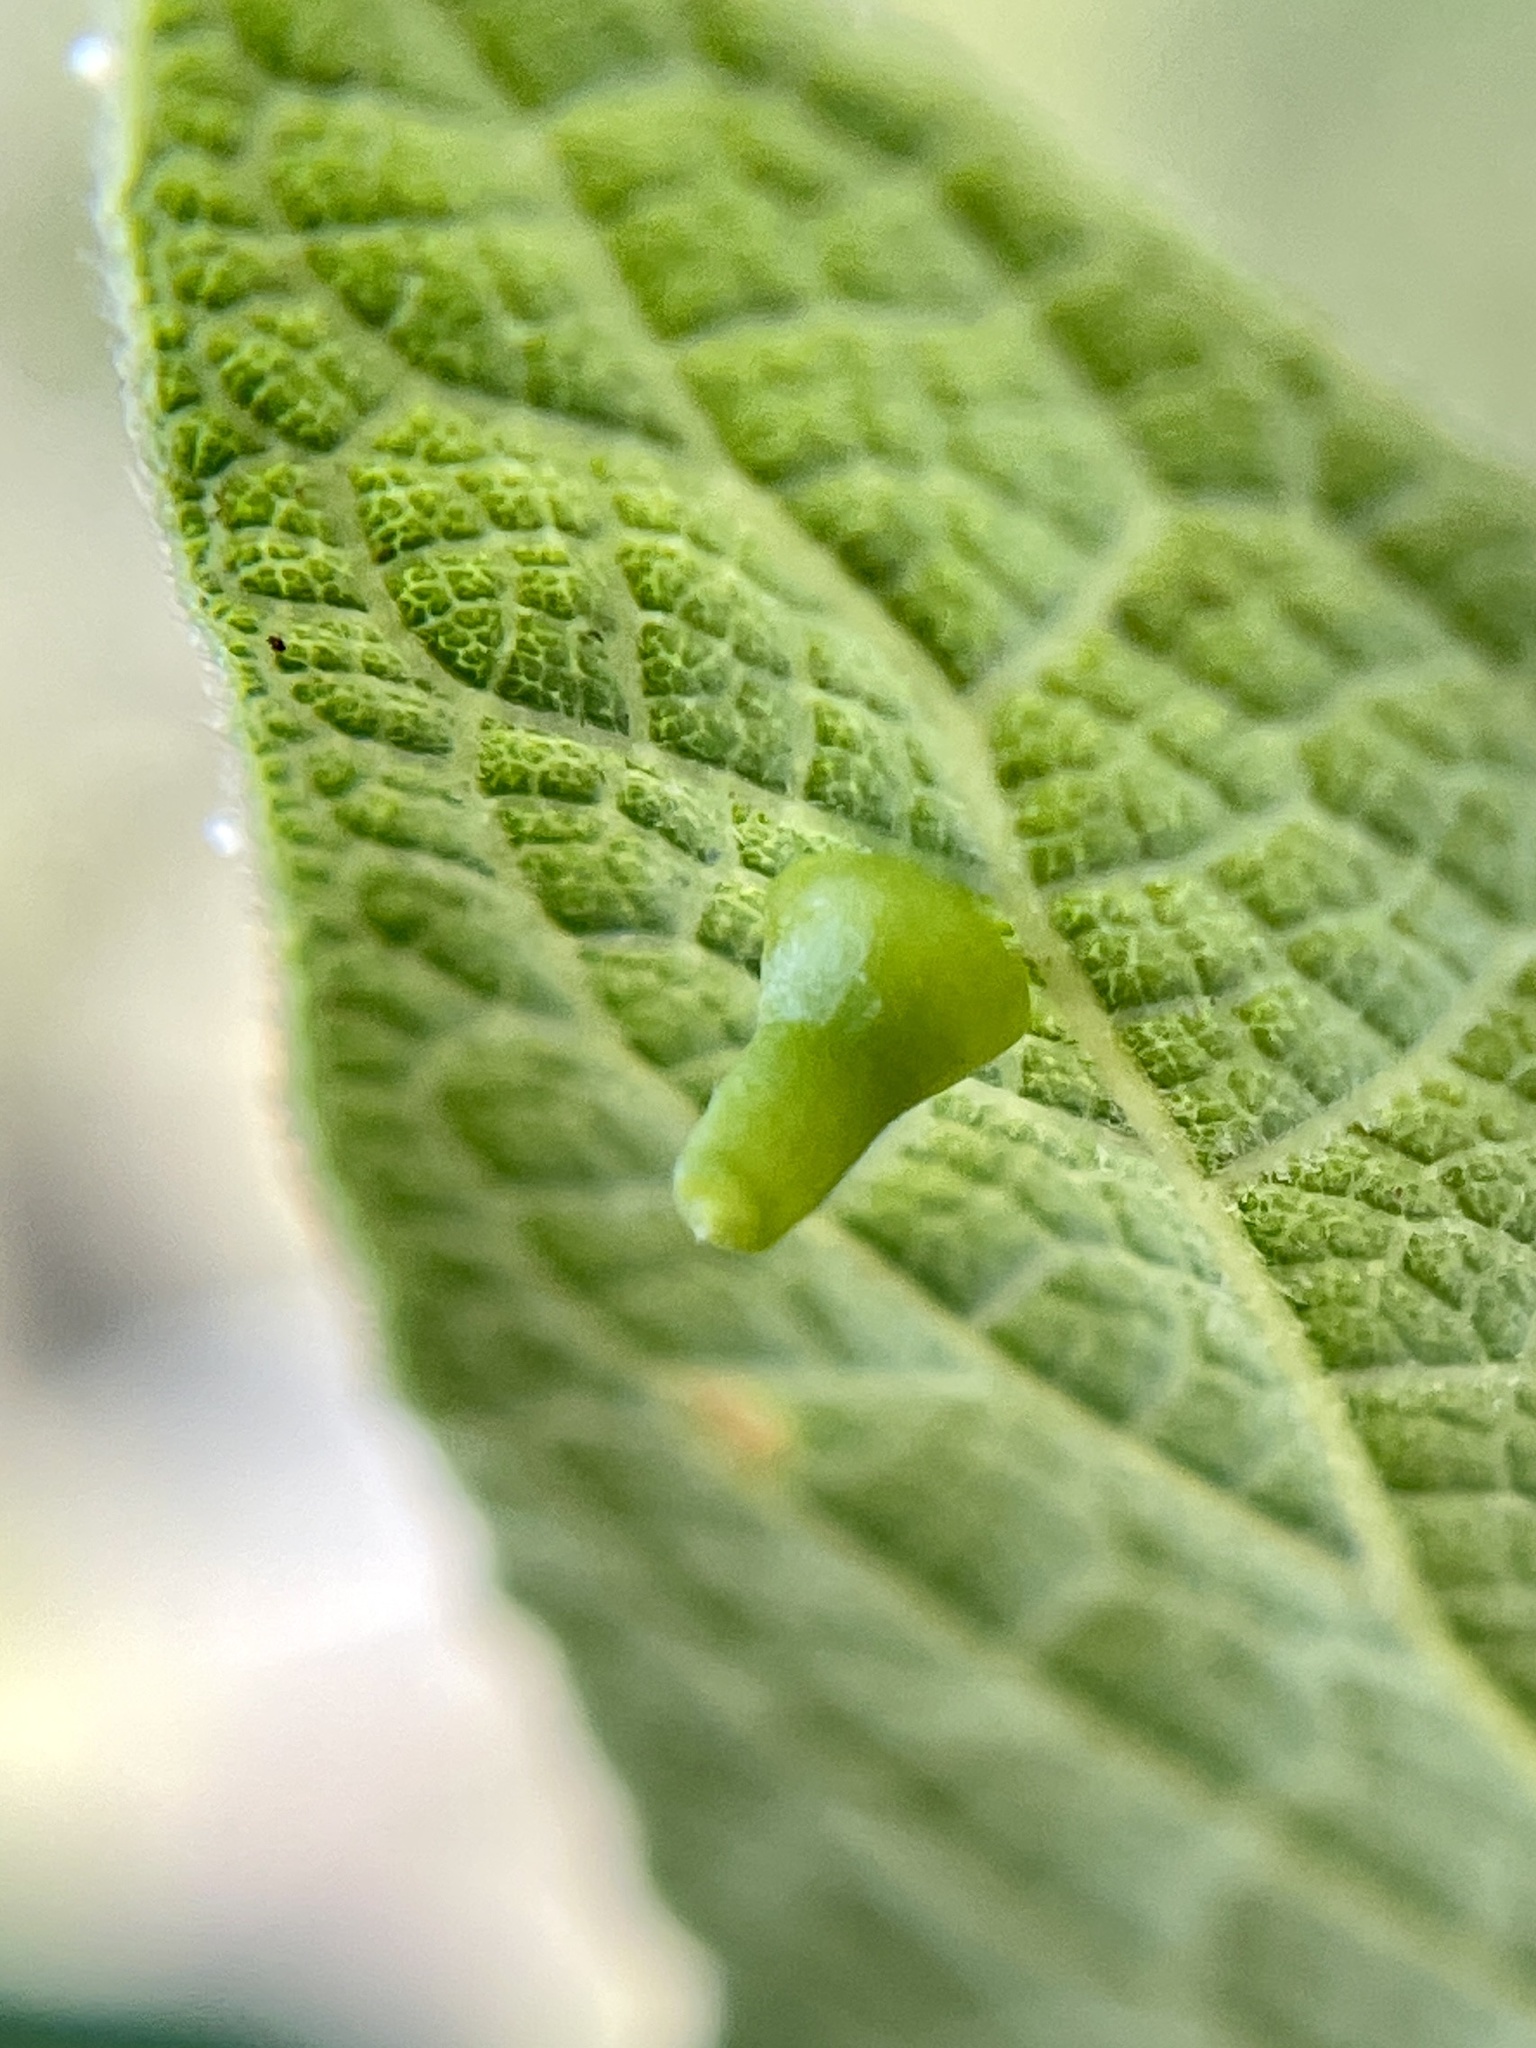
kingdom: Animalia
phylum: Arthropoda
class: Insecta
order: Diptera
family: Cecidomyiidae
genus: Celticecis
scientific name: Celticecis aciculata
